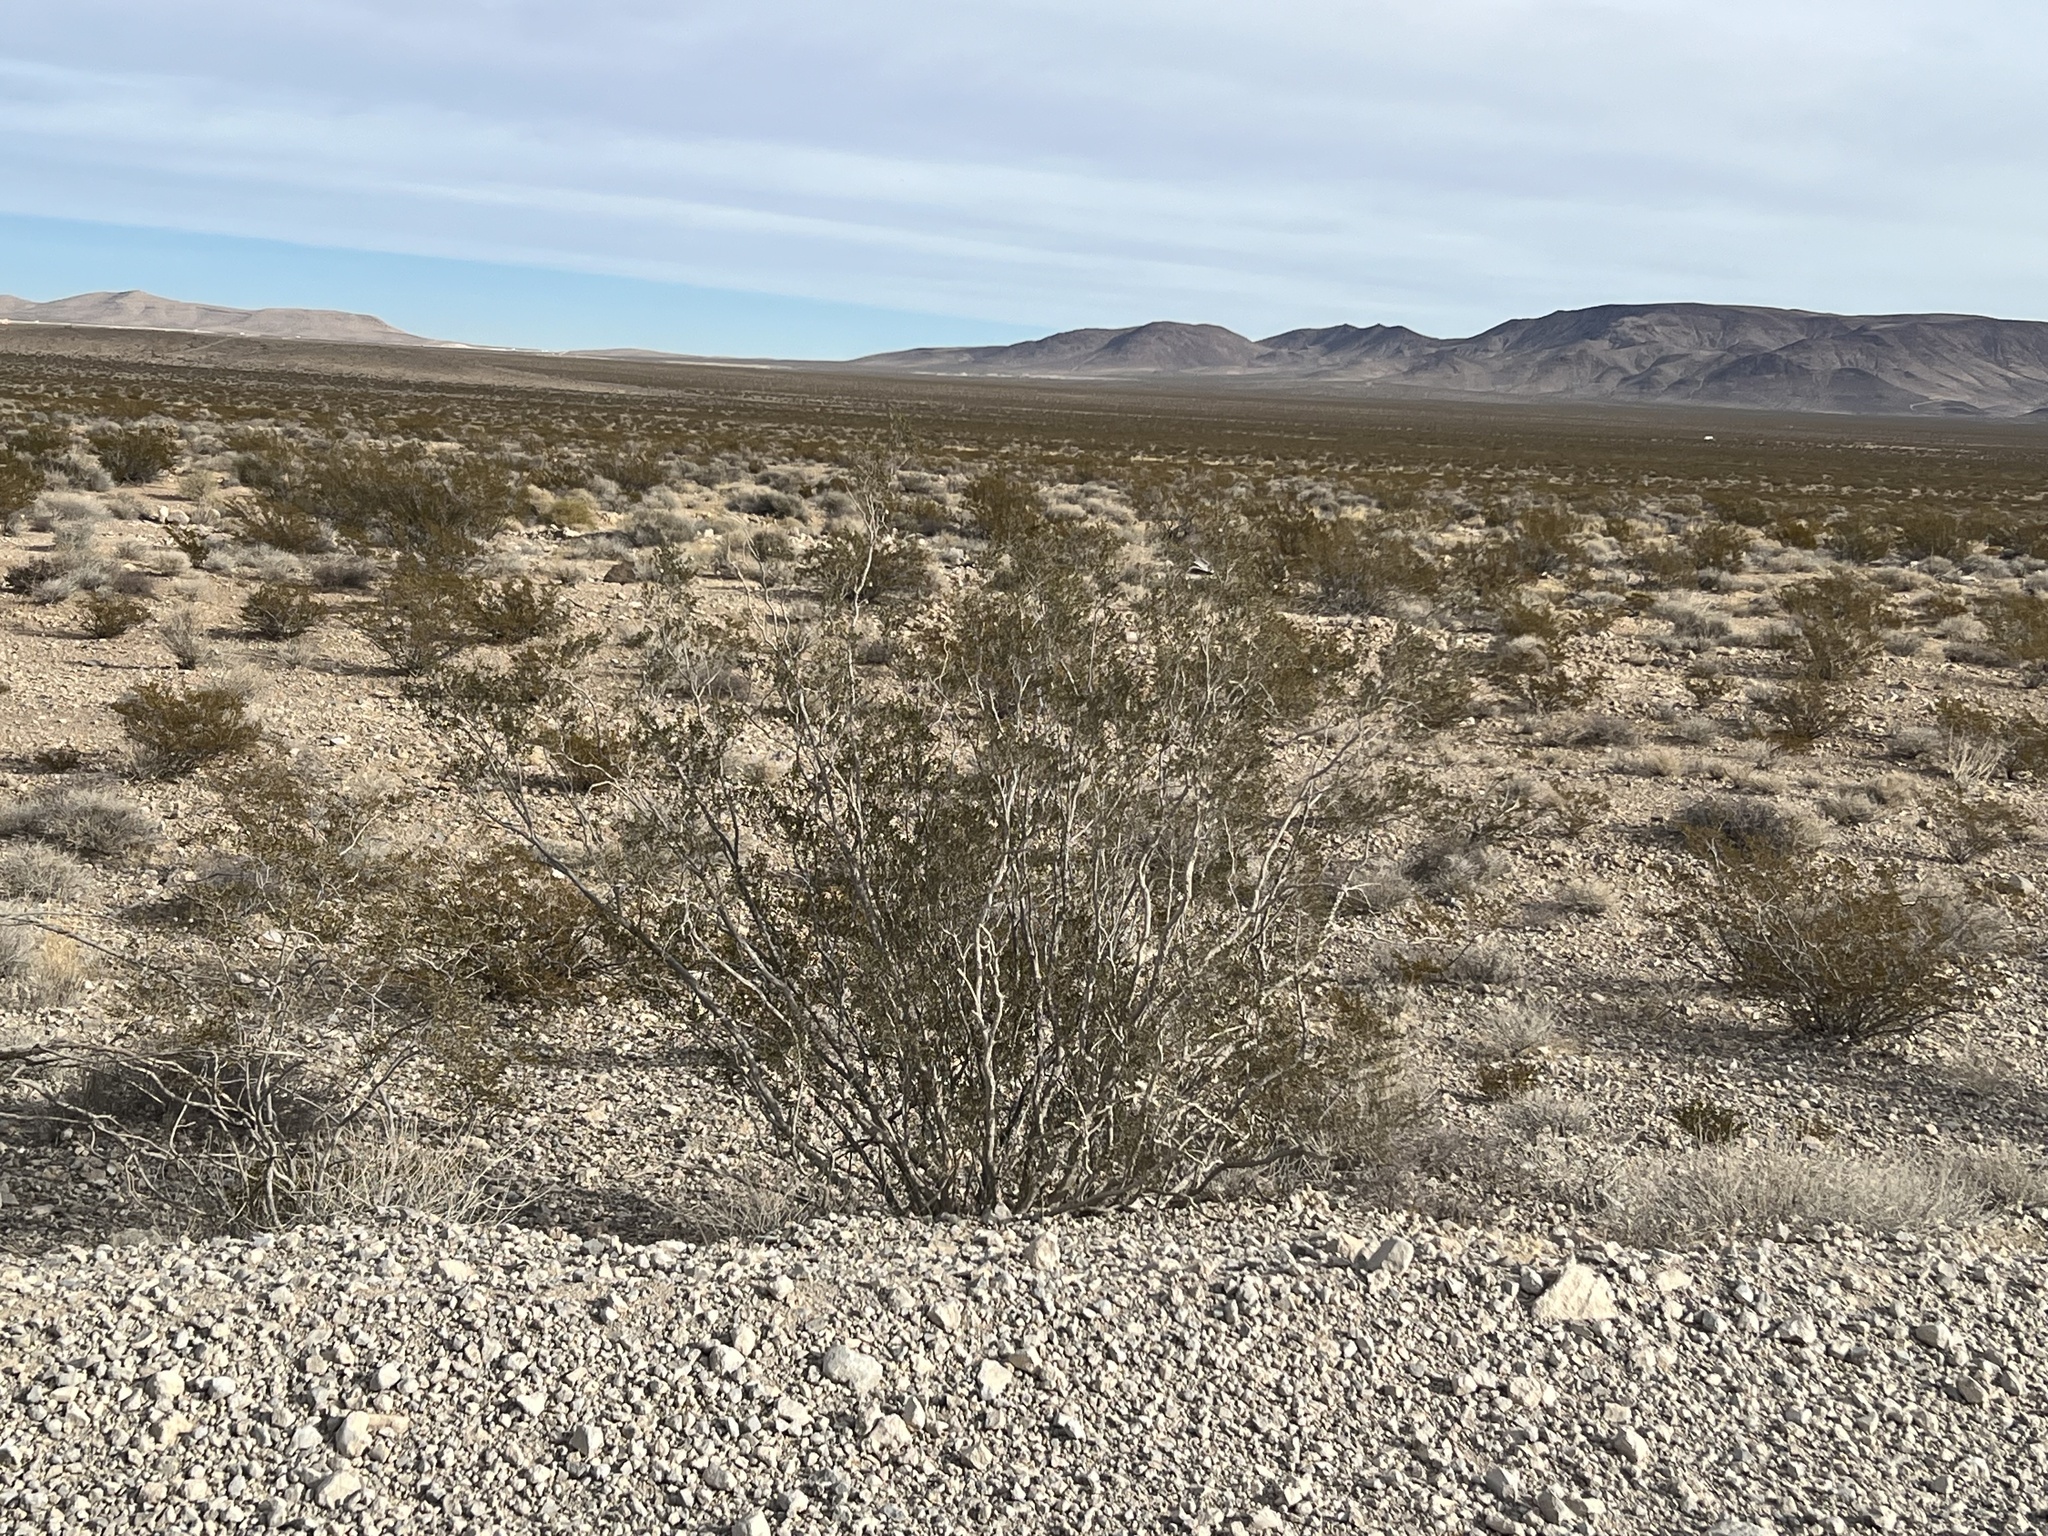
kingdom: Plantae
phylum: Tracheophyta
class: Magnoliopsida
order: Zygophyllales
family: Zygophyllaceae
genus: Larrea
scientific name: Larrea tridentata
